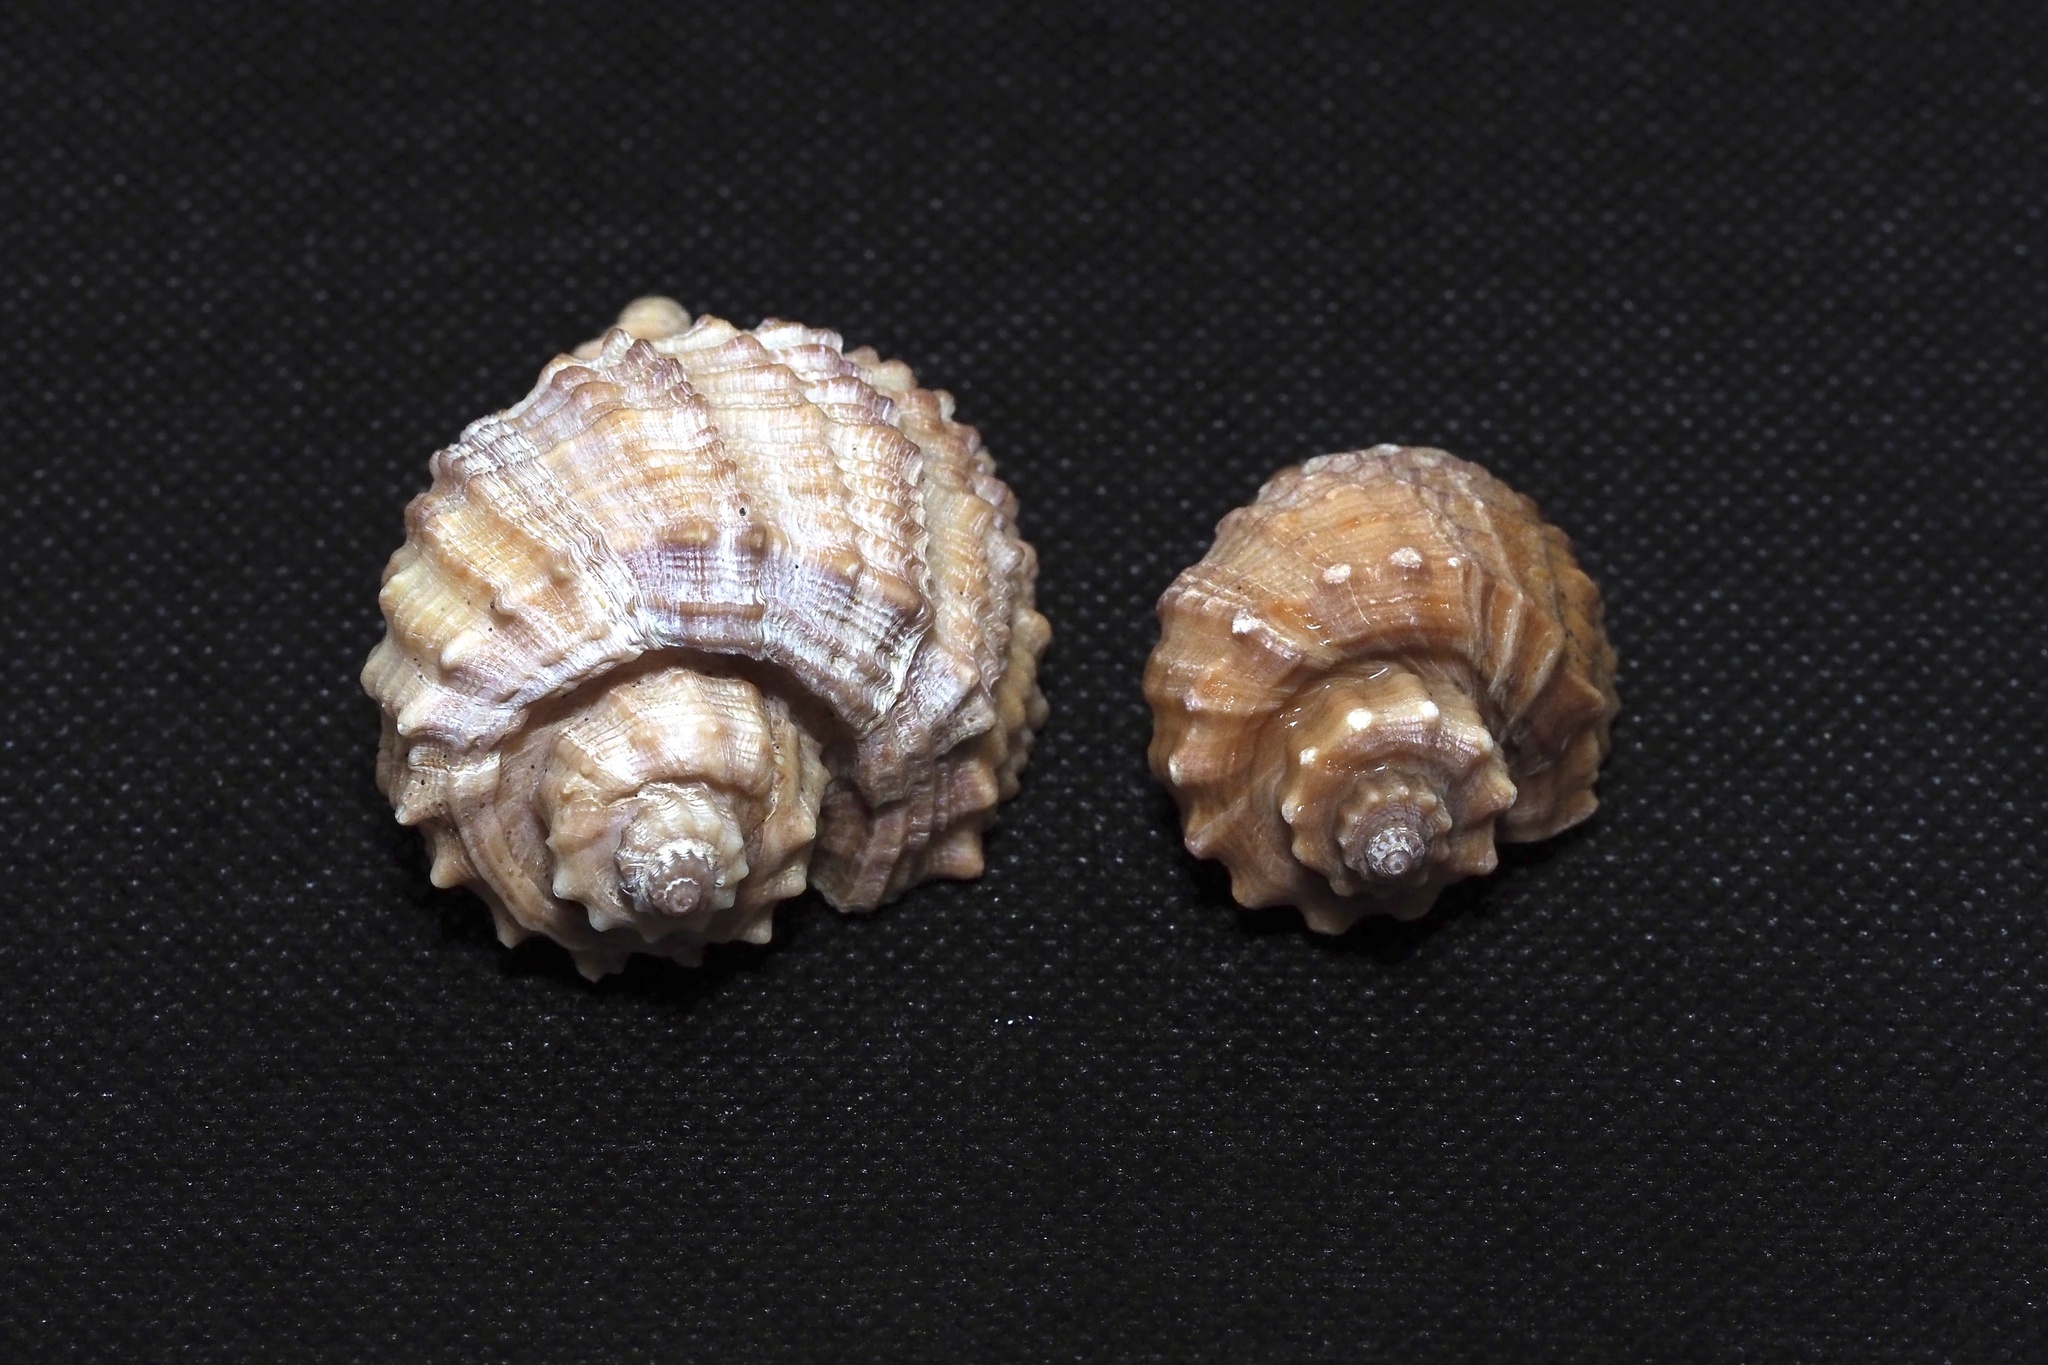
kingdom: Animalia
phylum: Mollusca
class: Gastropoda
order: Neogastropoda
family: Cancellariidae
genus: Cancellaria
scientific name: Cancellaria nodulifera
